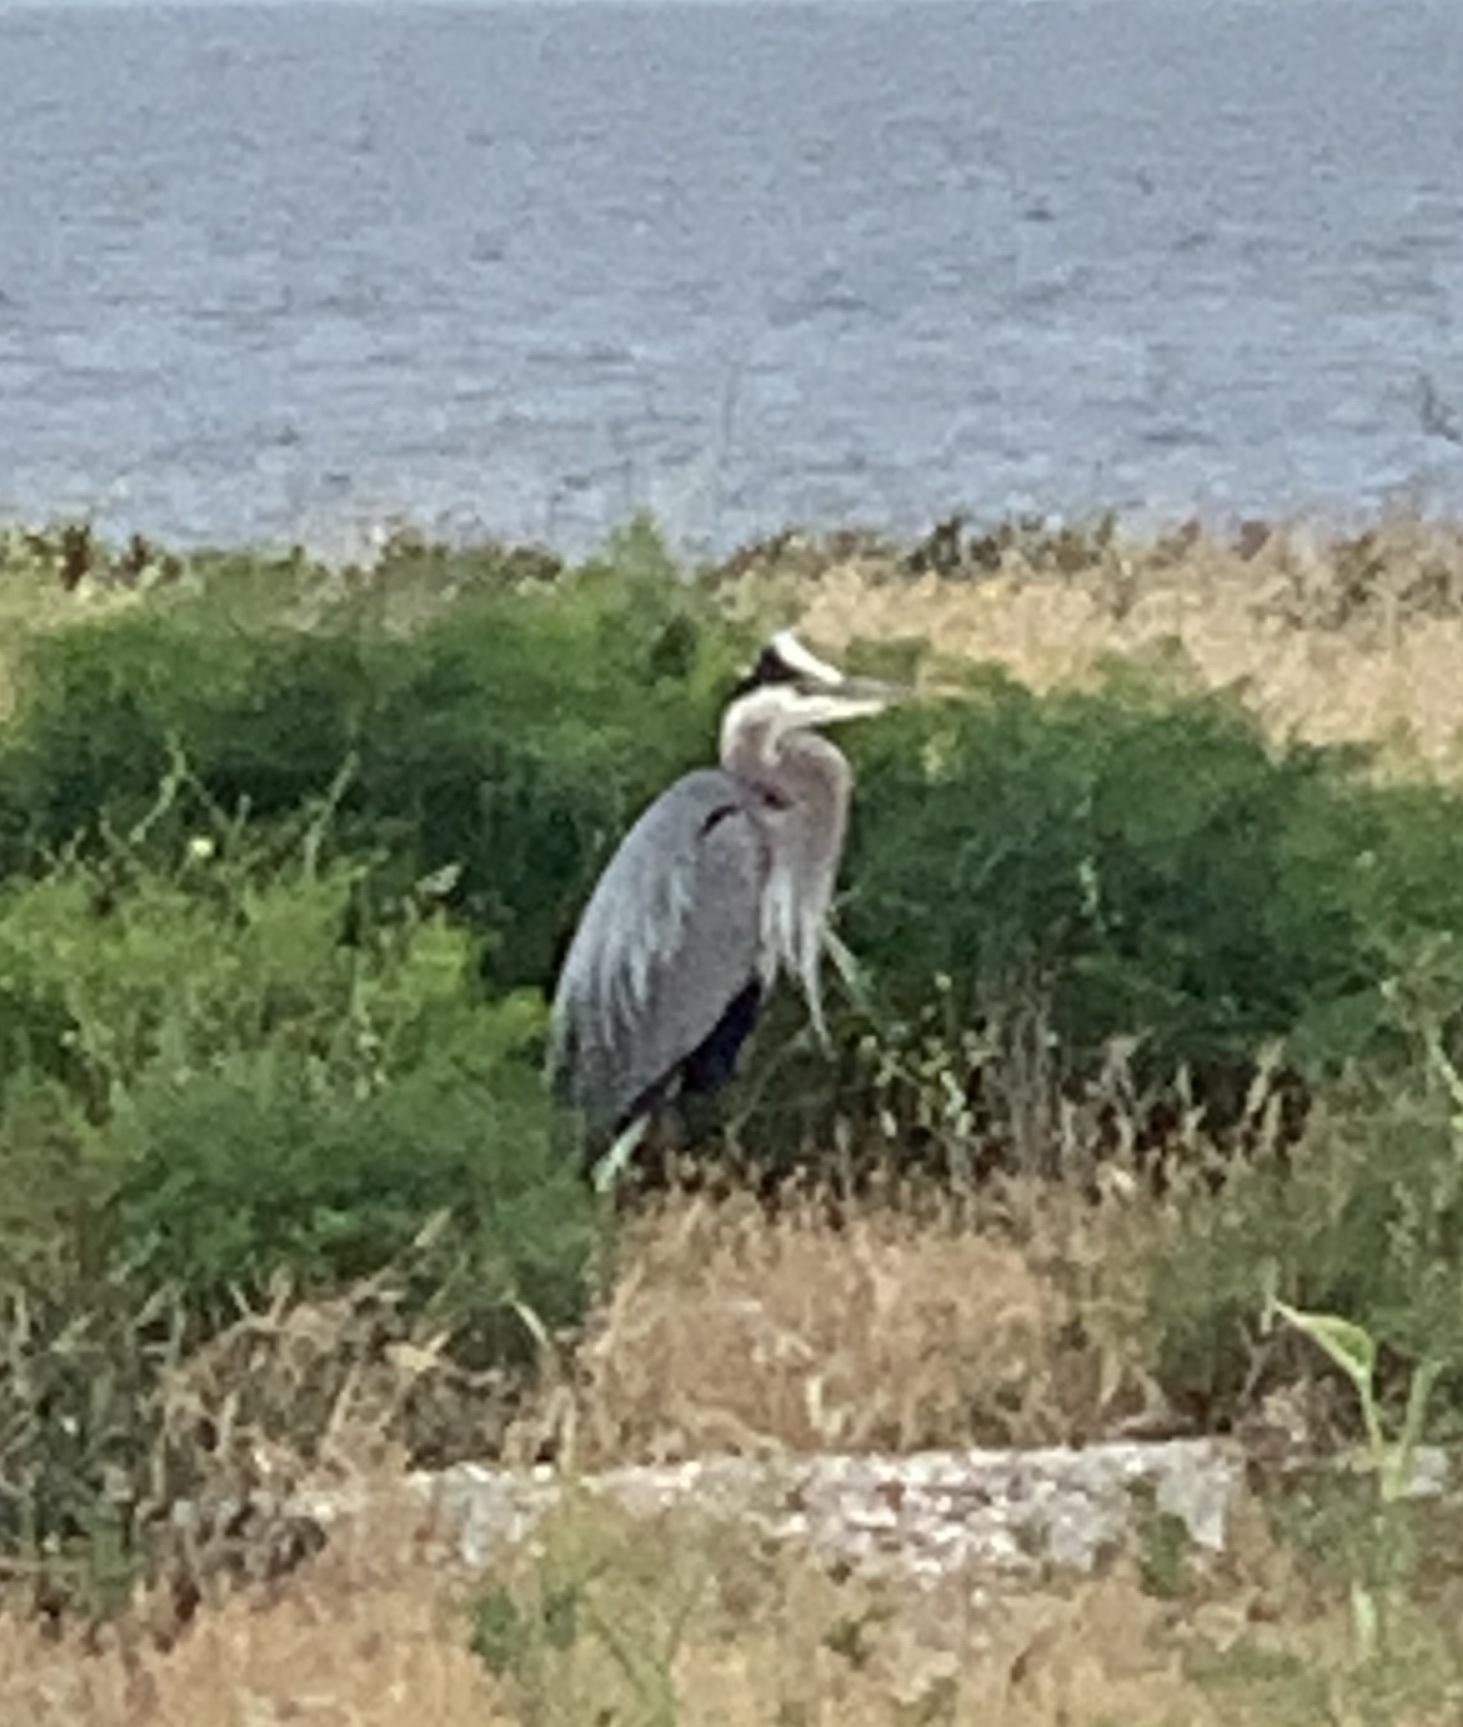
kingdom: Animalia
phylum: Chordata
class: Aves
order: Pelecaniformes
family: Ardeidae
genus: Ardea
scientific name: Ardea herodias
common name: Great blue heron
